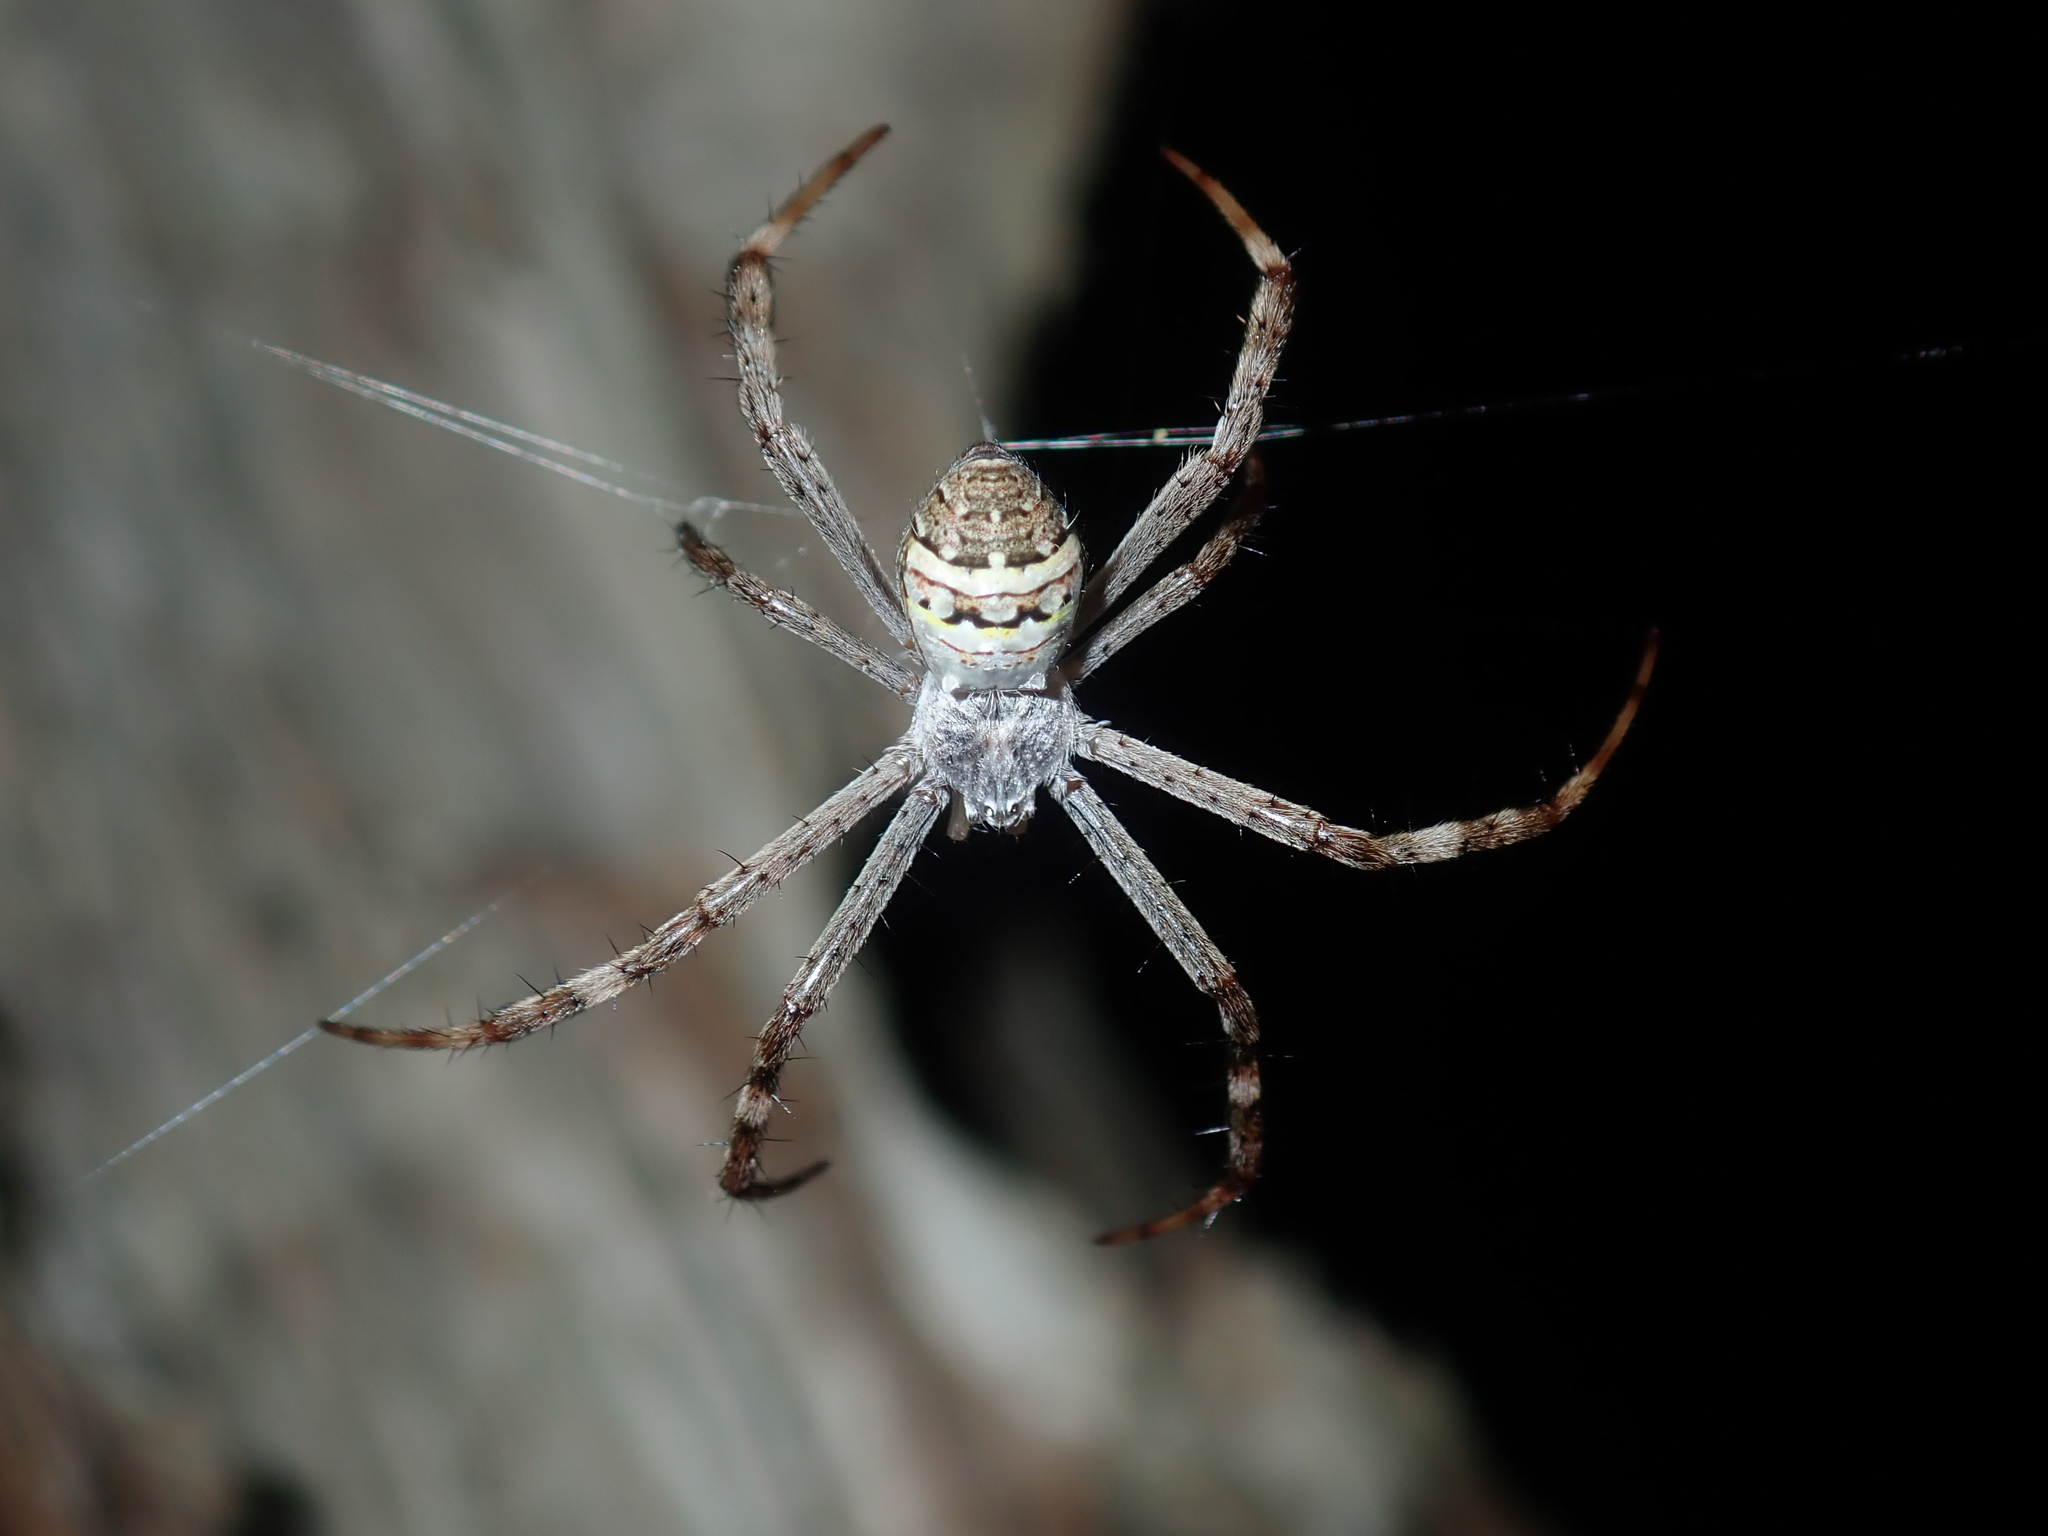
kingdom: Animalia
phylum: Arthropoda
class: Arachnida
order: Araneae
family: Araneidae
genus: Argiope
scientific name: Argiope keyserlingi
